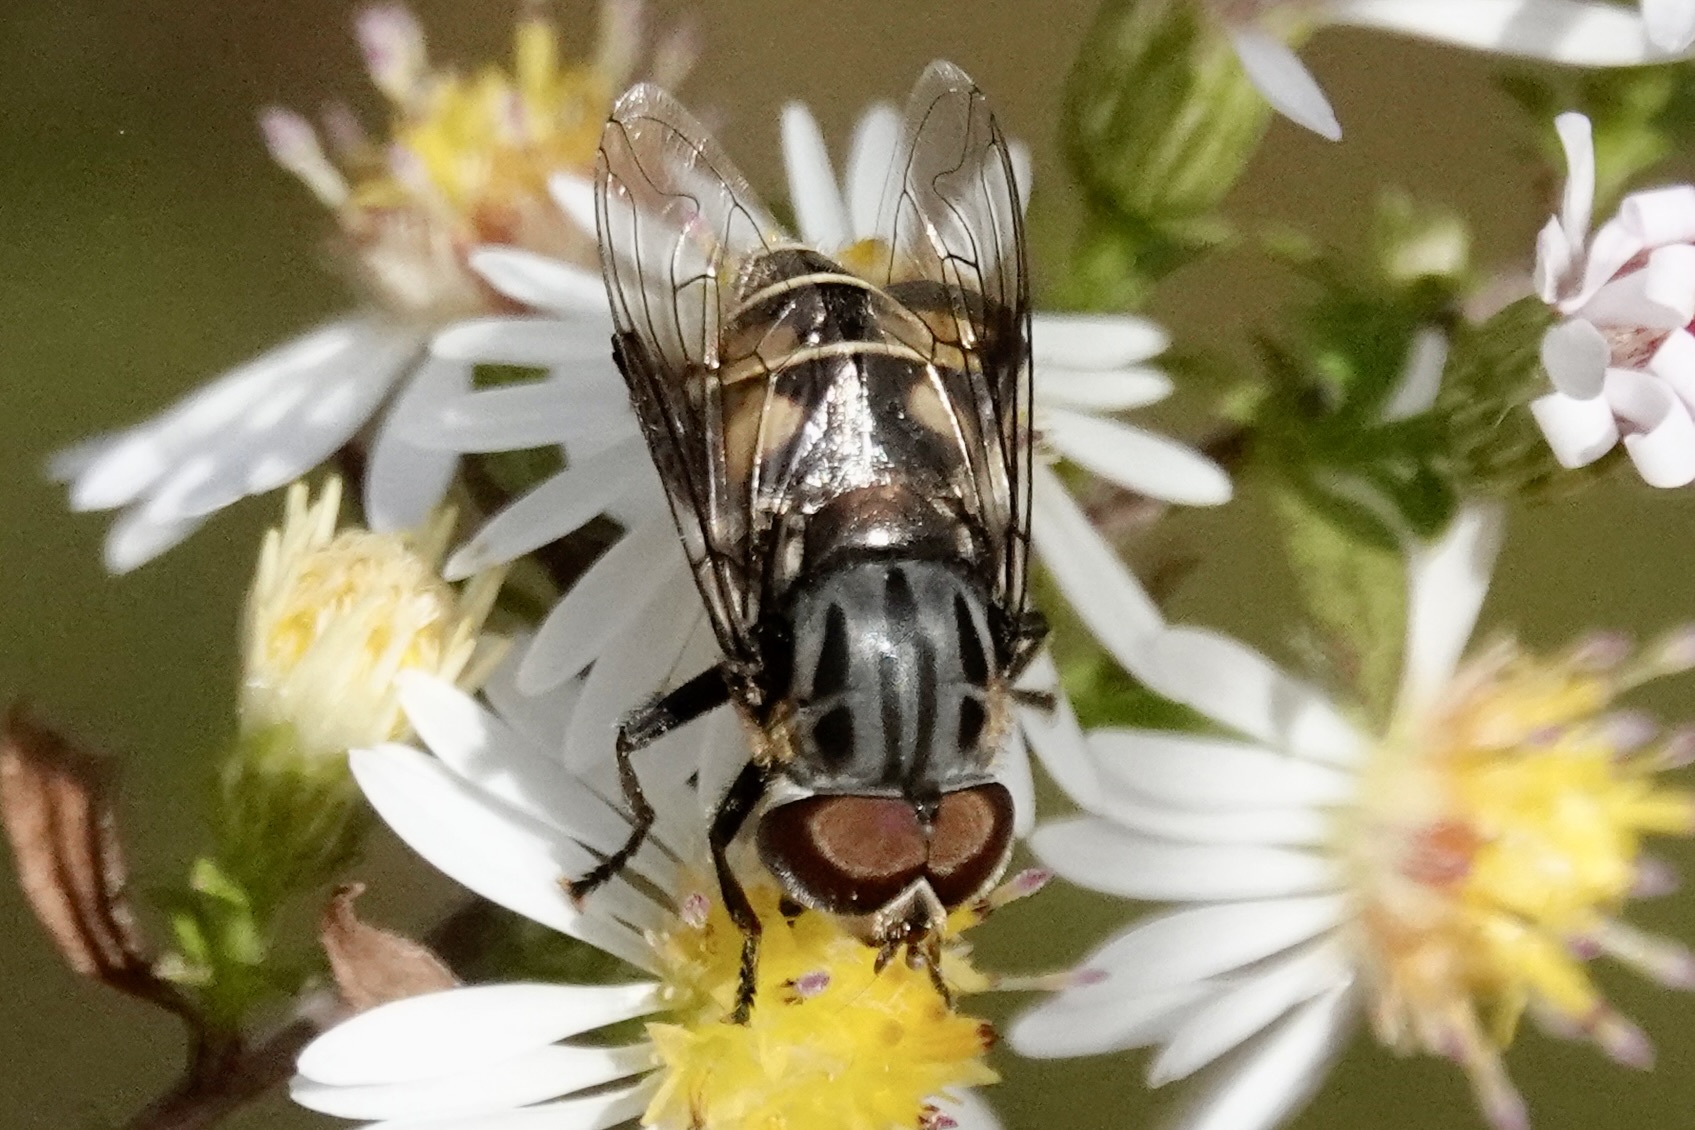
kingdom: Animalia
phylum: Arthropoda
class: Insecta
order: Diptera
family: Syrphidae
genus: Palpada
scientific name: Palpada furcata
